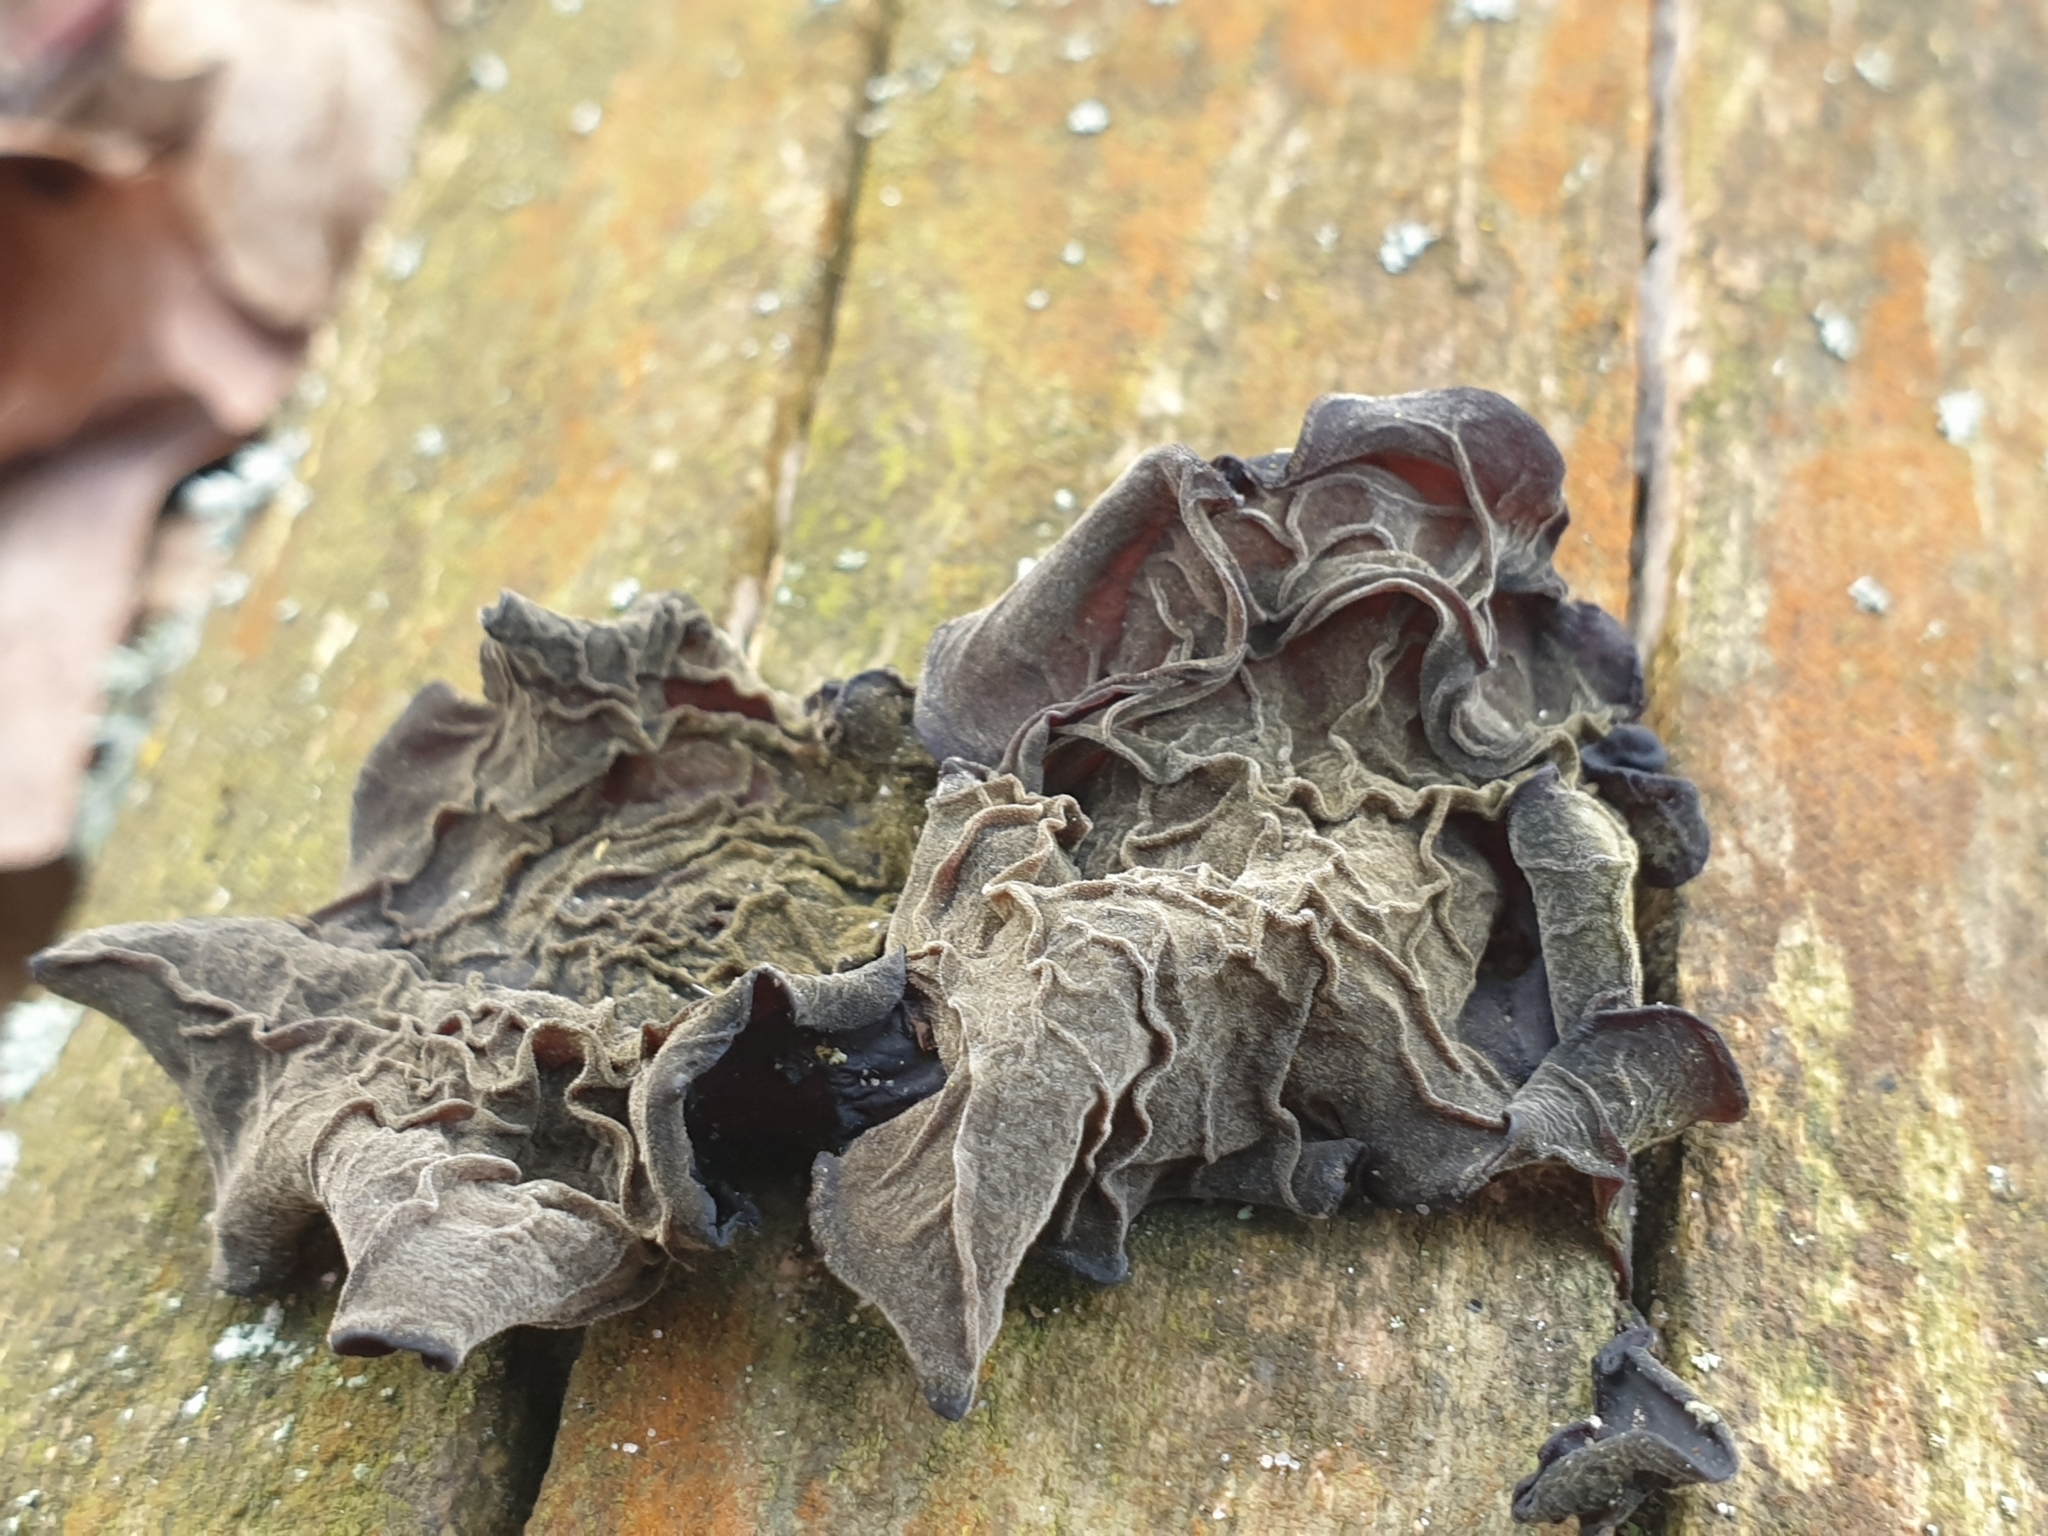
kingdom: Fungi
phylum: Basidiomycota
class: Agaricomycetes
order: Auriculariales
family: Auriculariaceae
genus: Auricularia
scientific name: Auricularia auricula-judae
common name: Jelly ear
